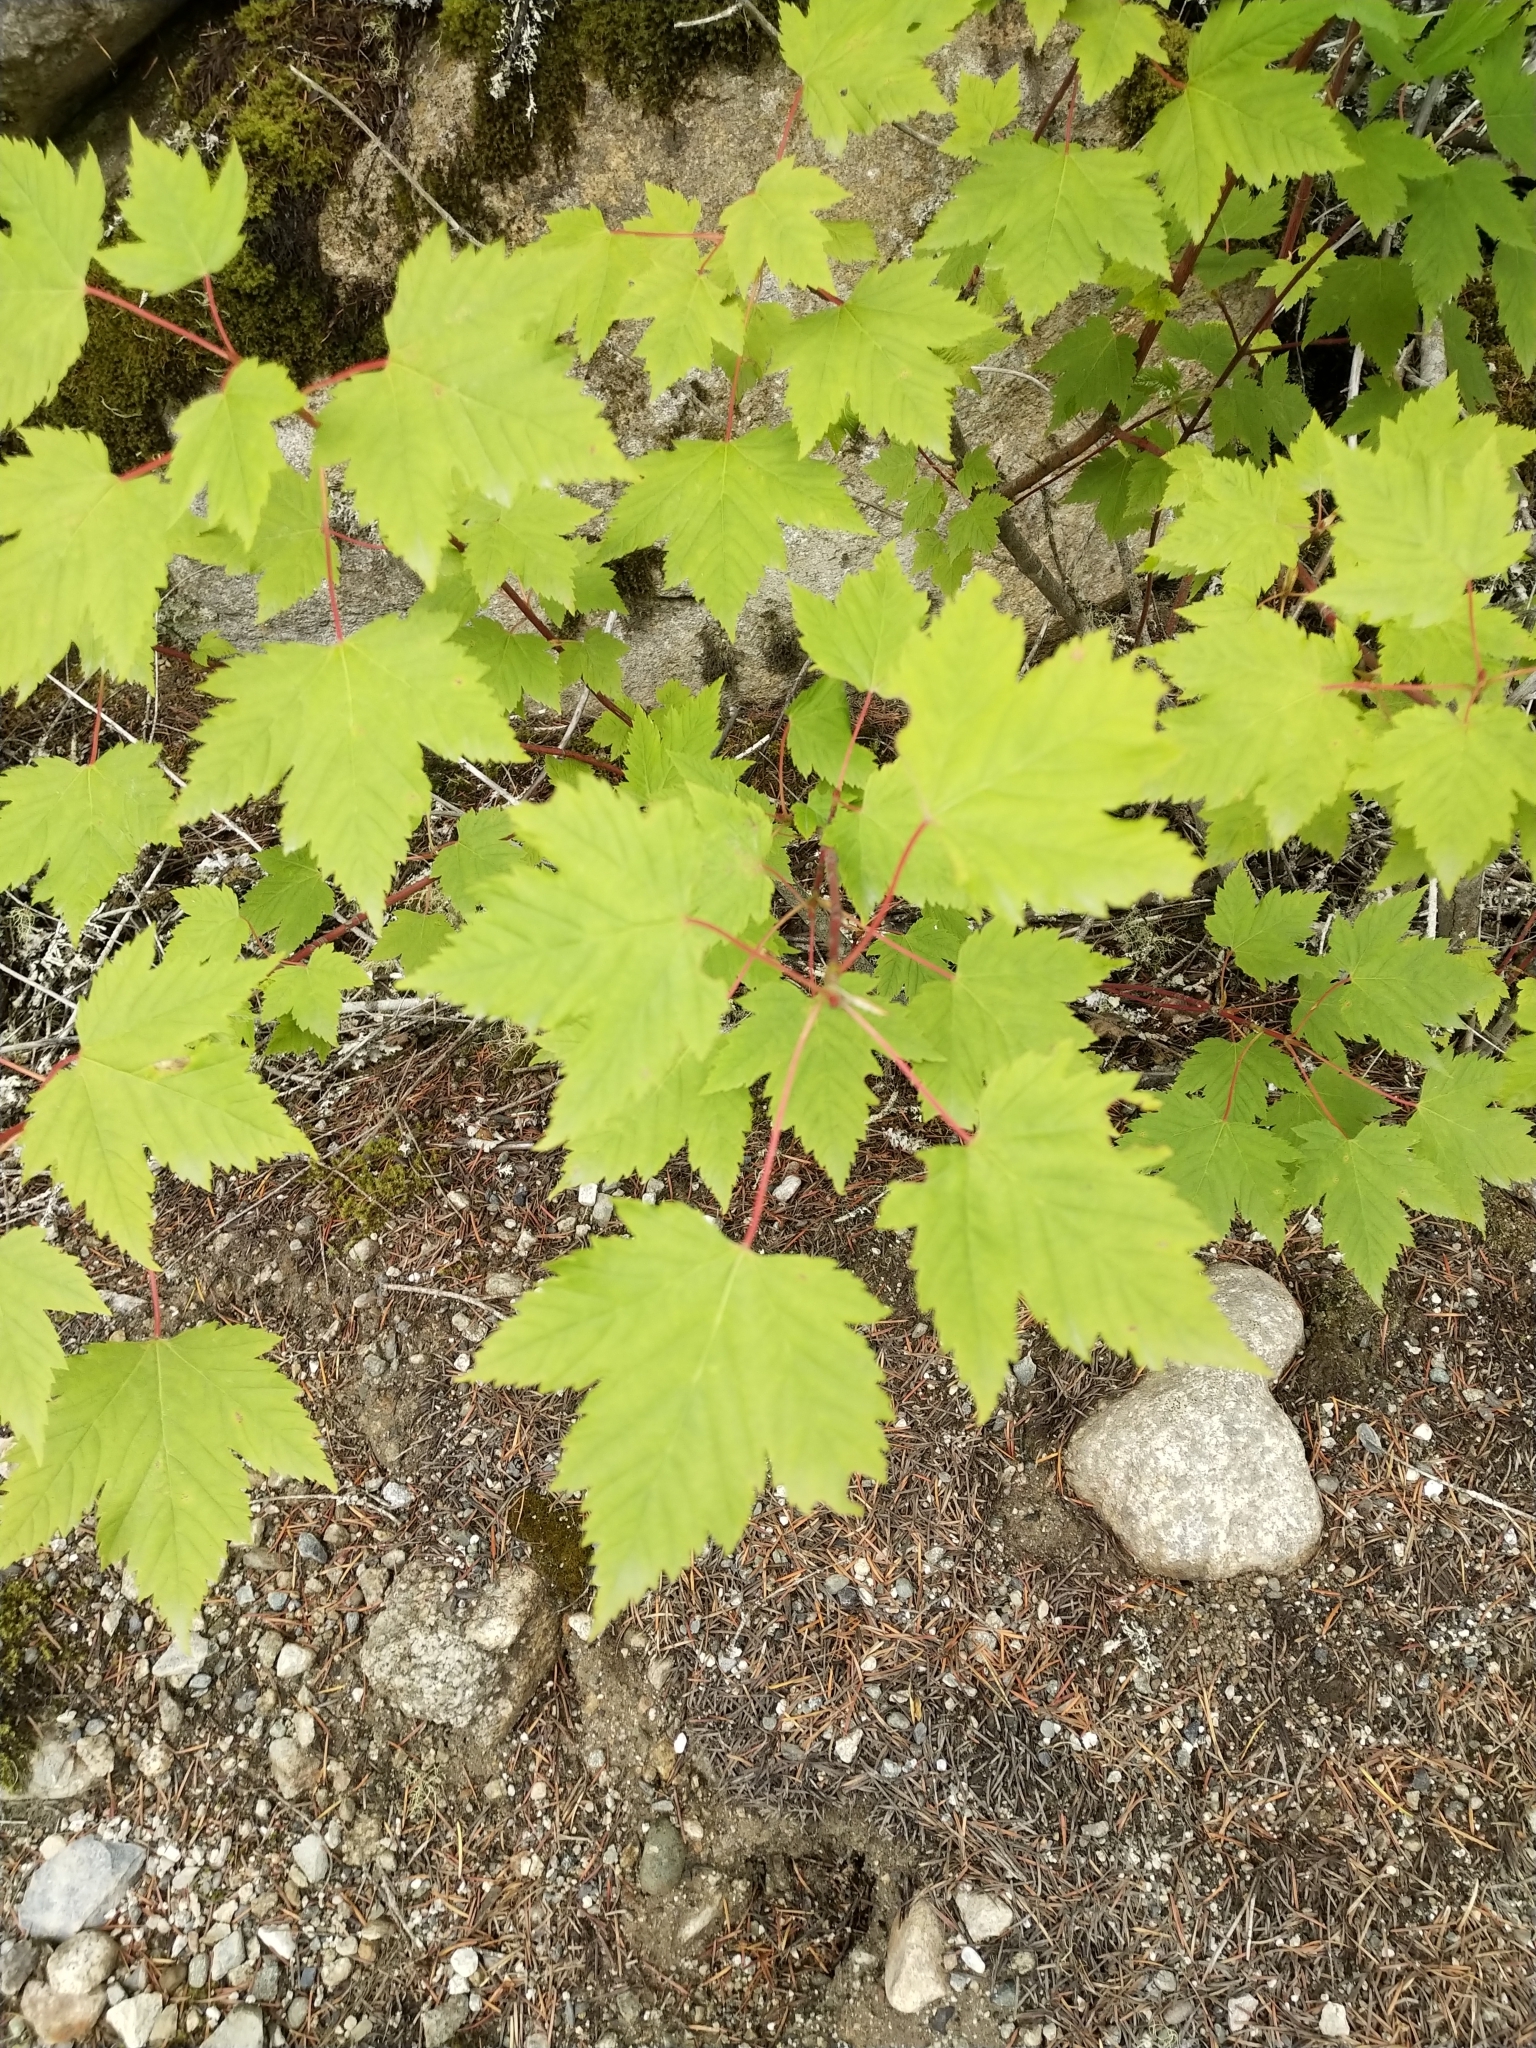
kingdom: Plantae
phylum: Tracheophyta
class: Magnoliopsida
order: Sapindales
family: Sapindaceae
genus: Acer
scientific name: Acer glabrum
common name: Rocky mountain maple
